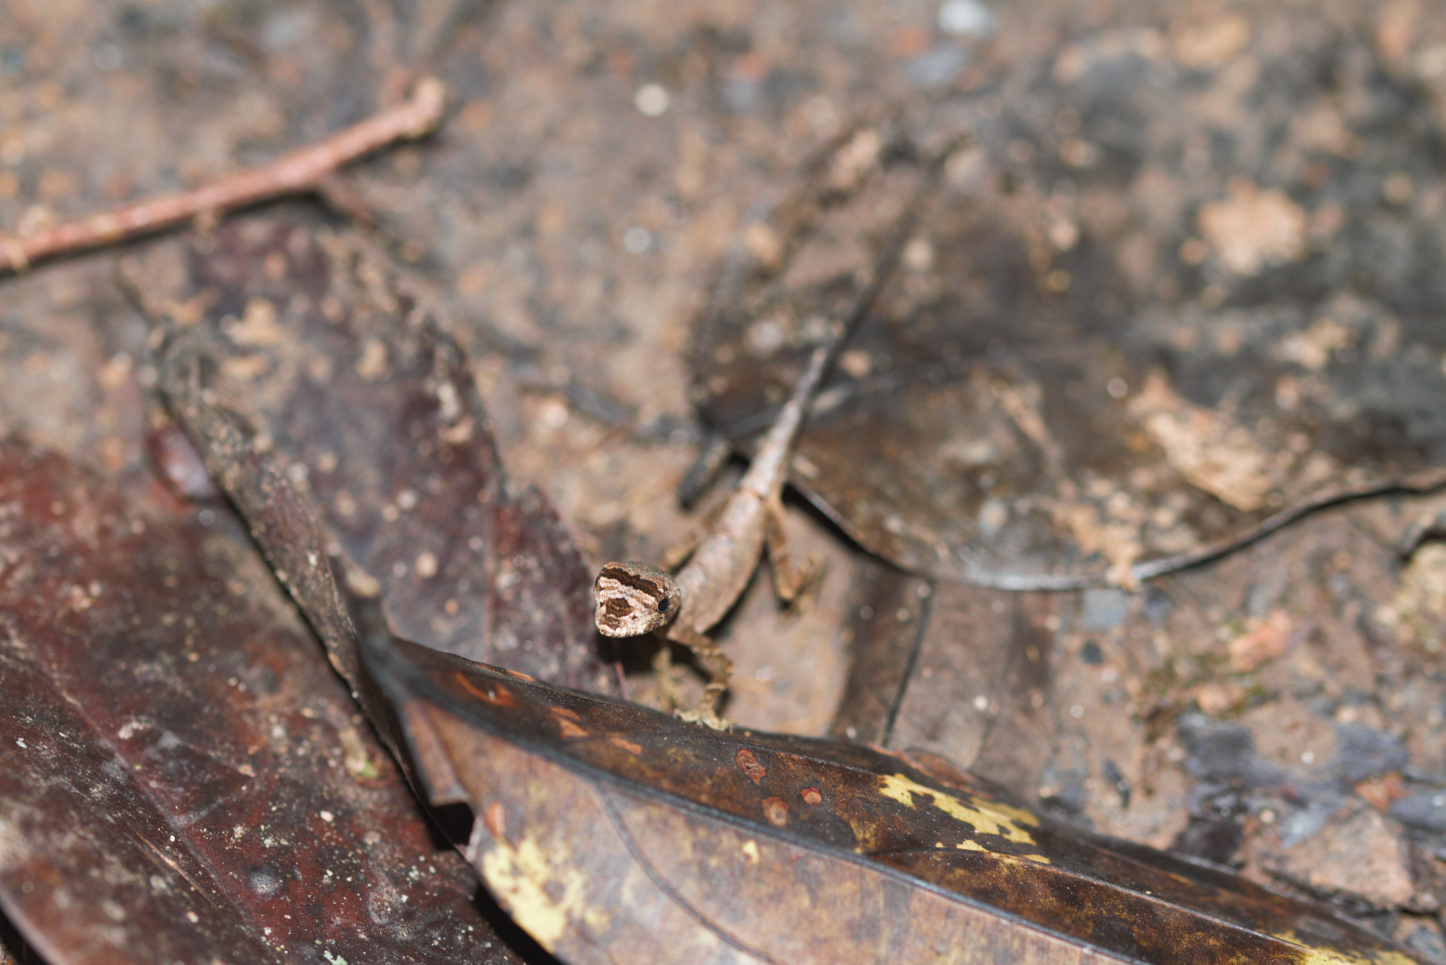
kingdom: Animalia
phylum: Chordata
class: Squamata
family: Dactyloidae
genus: Anolis
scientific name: Anolis chrysolepis
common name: Goldenscale anole
